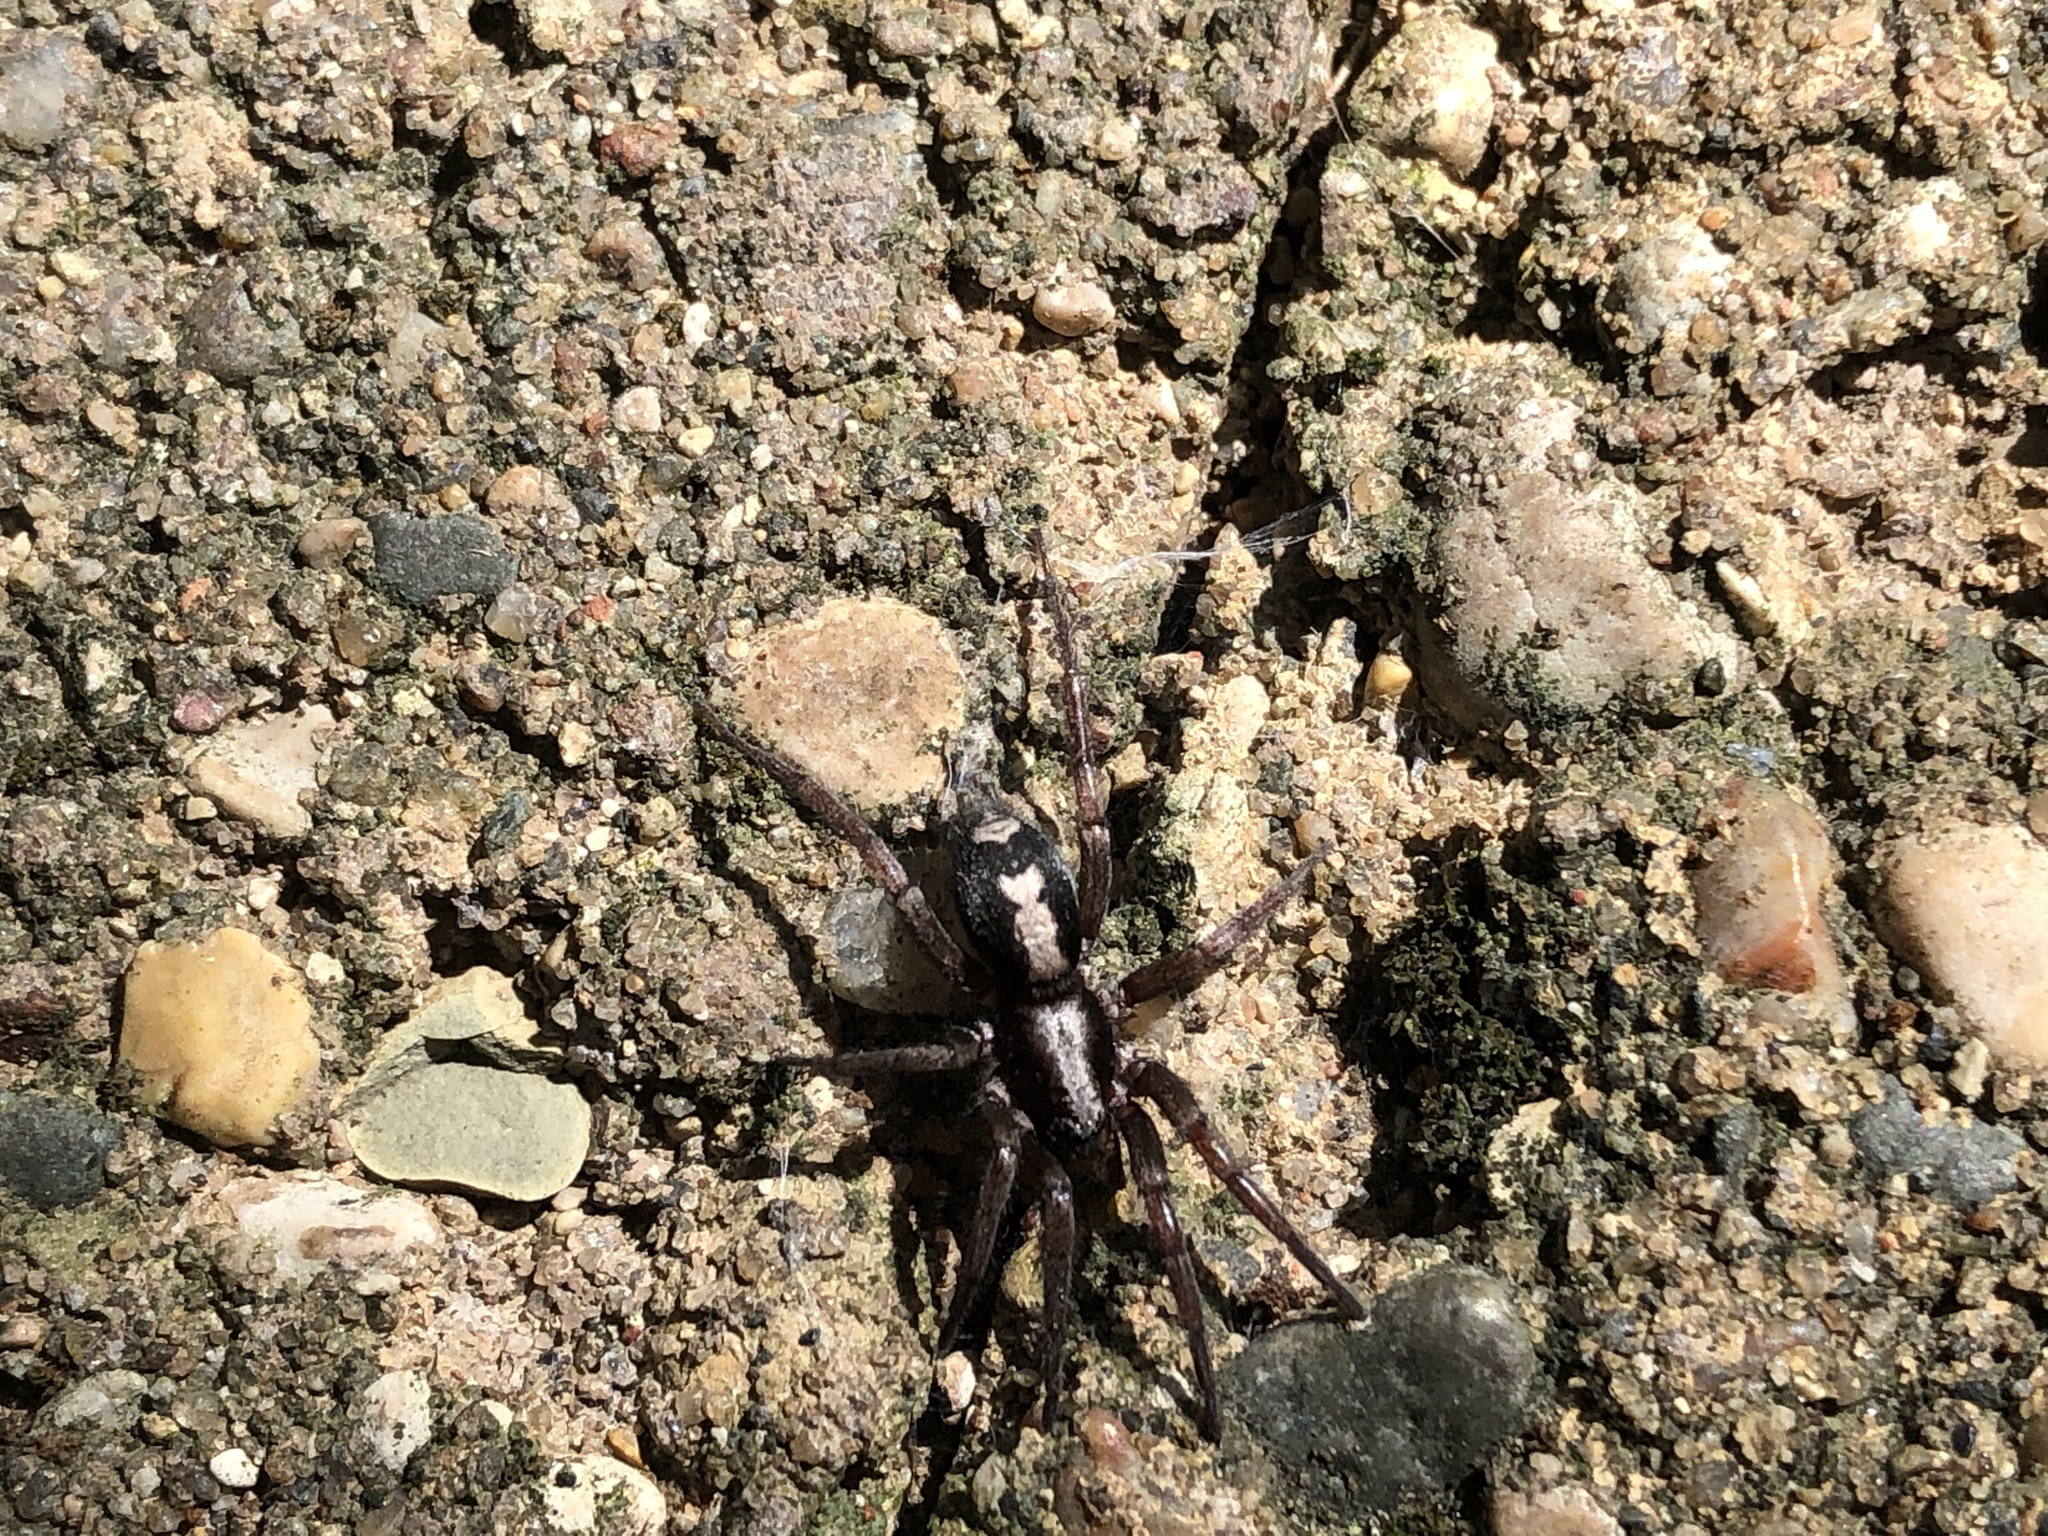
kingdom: Animalia
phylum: Arthropoda
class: Arachnida
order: Araneae
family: Gnaphosidae
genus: Herpyllus
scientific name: Herpyllus ecclesiasticus
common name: Eastern parson spider
